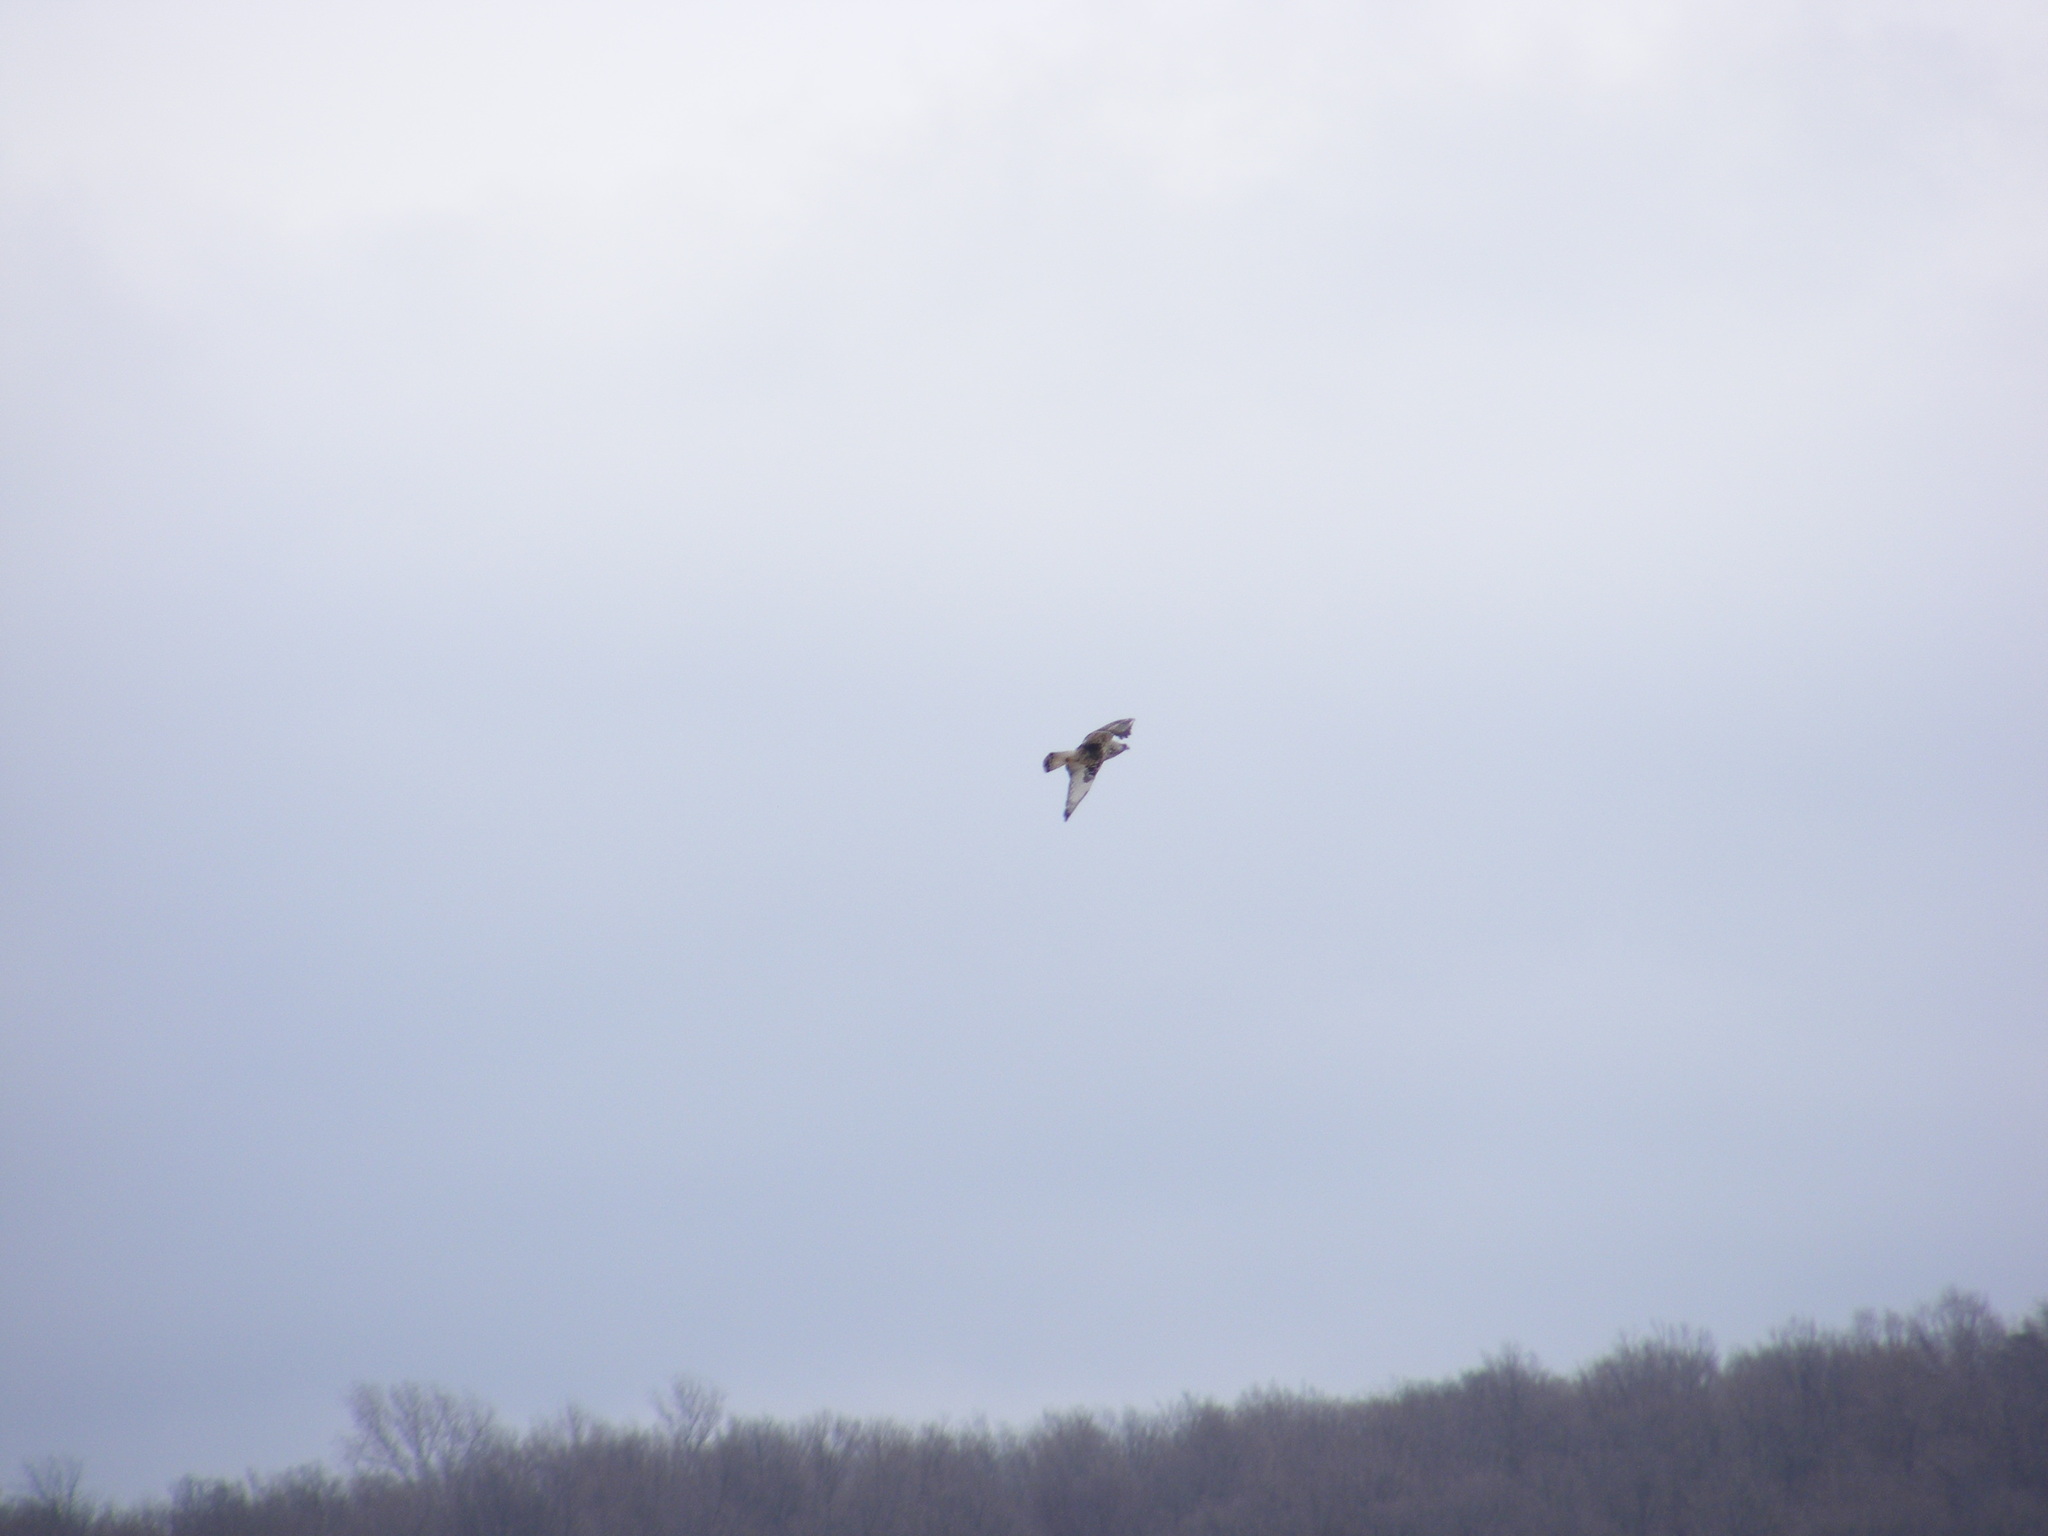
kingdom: Animalia
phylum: Chordata
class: Aves
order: Accipitriformes
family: Accipitridae
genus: Buteo
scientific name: Buteo lagopus
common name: Rough-legged buzzard
